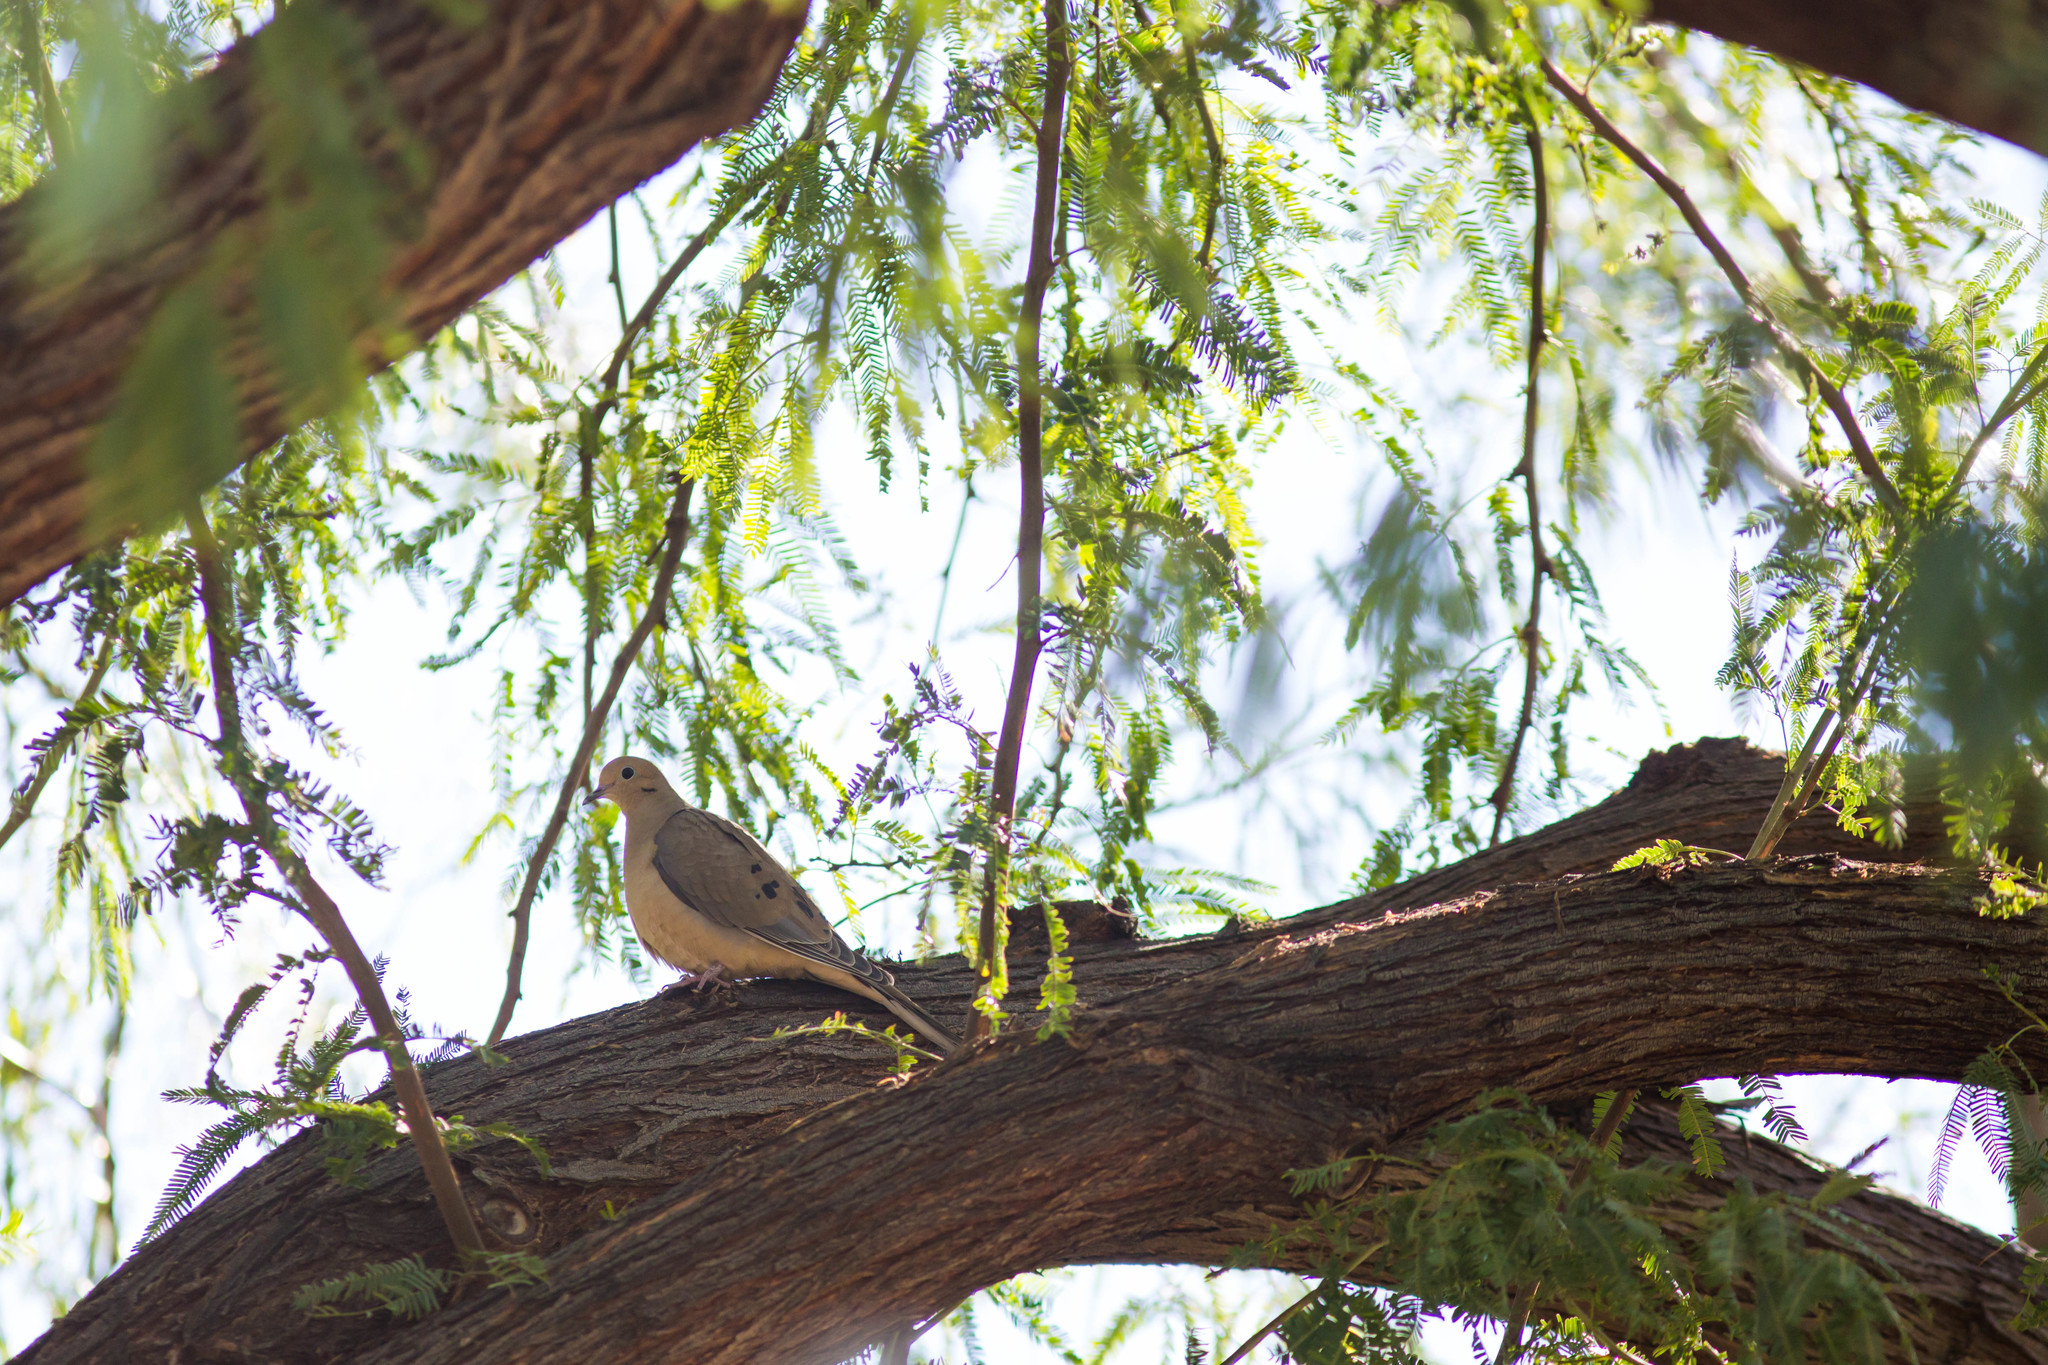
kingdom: Animalia
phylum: Chordata
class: Aves
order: Columbiformes
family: Columbidae
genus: Zenaida
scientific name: Zenaida macroura
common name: Mourning dove
